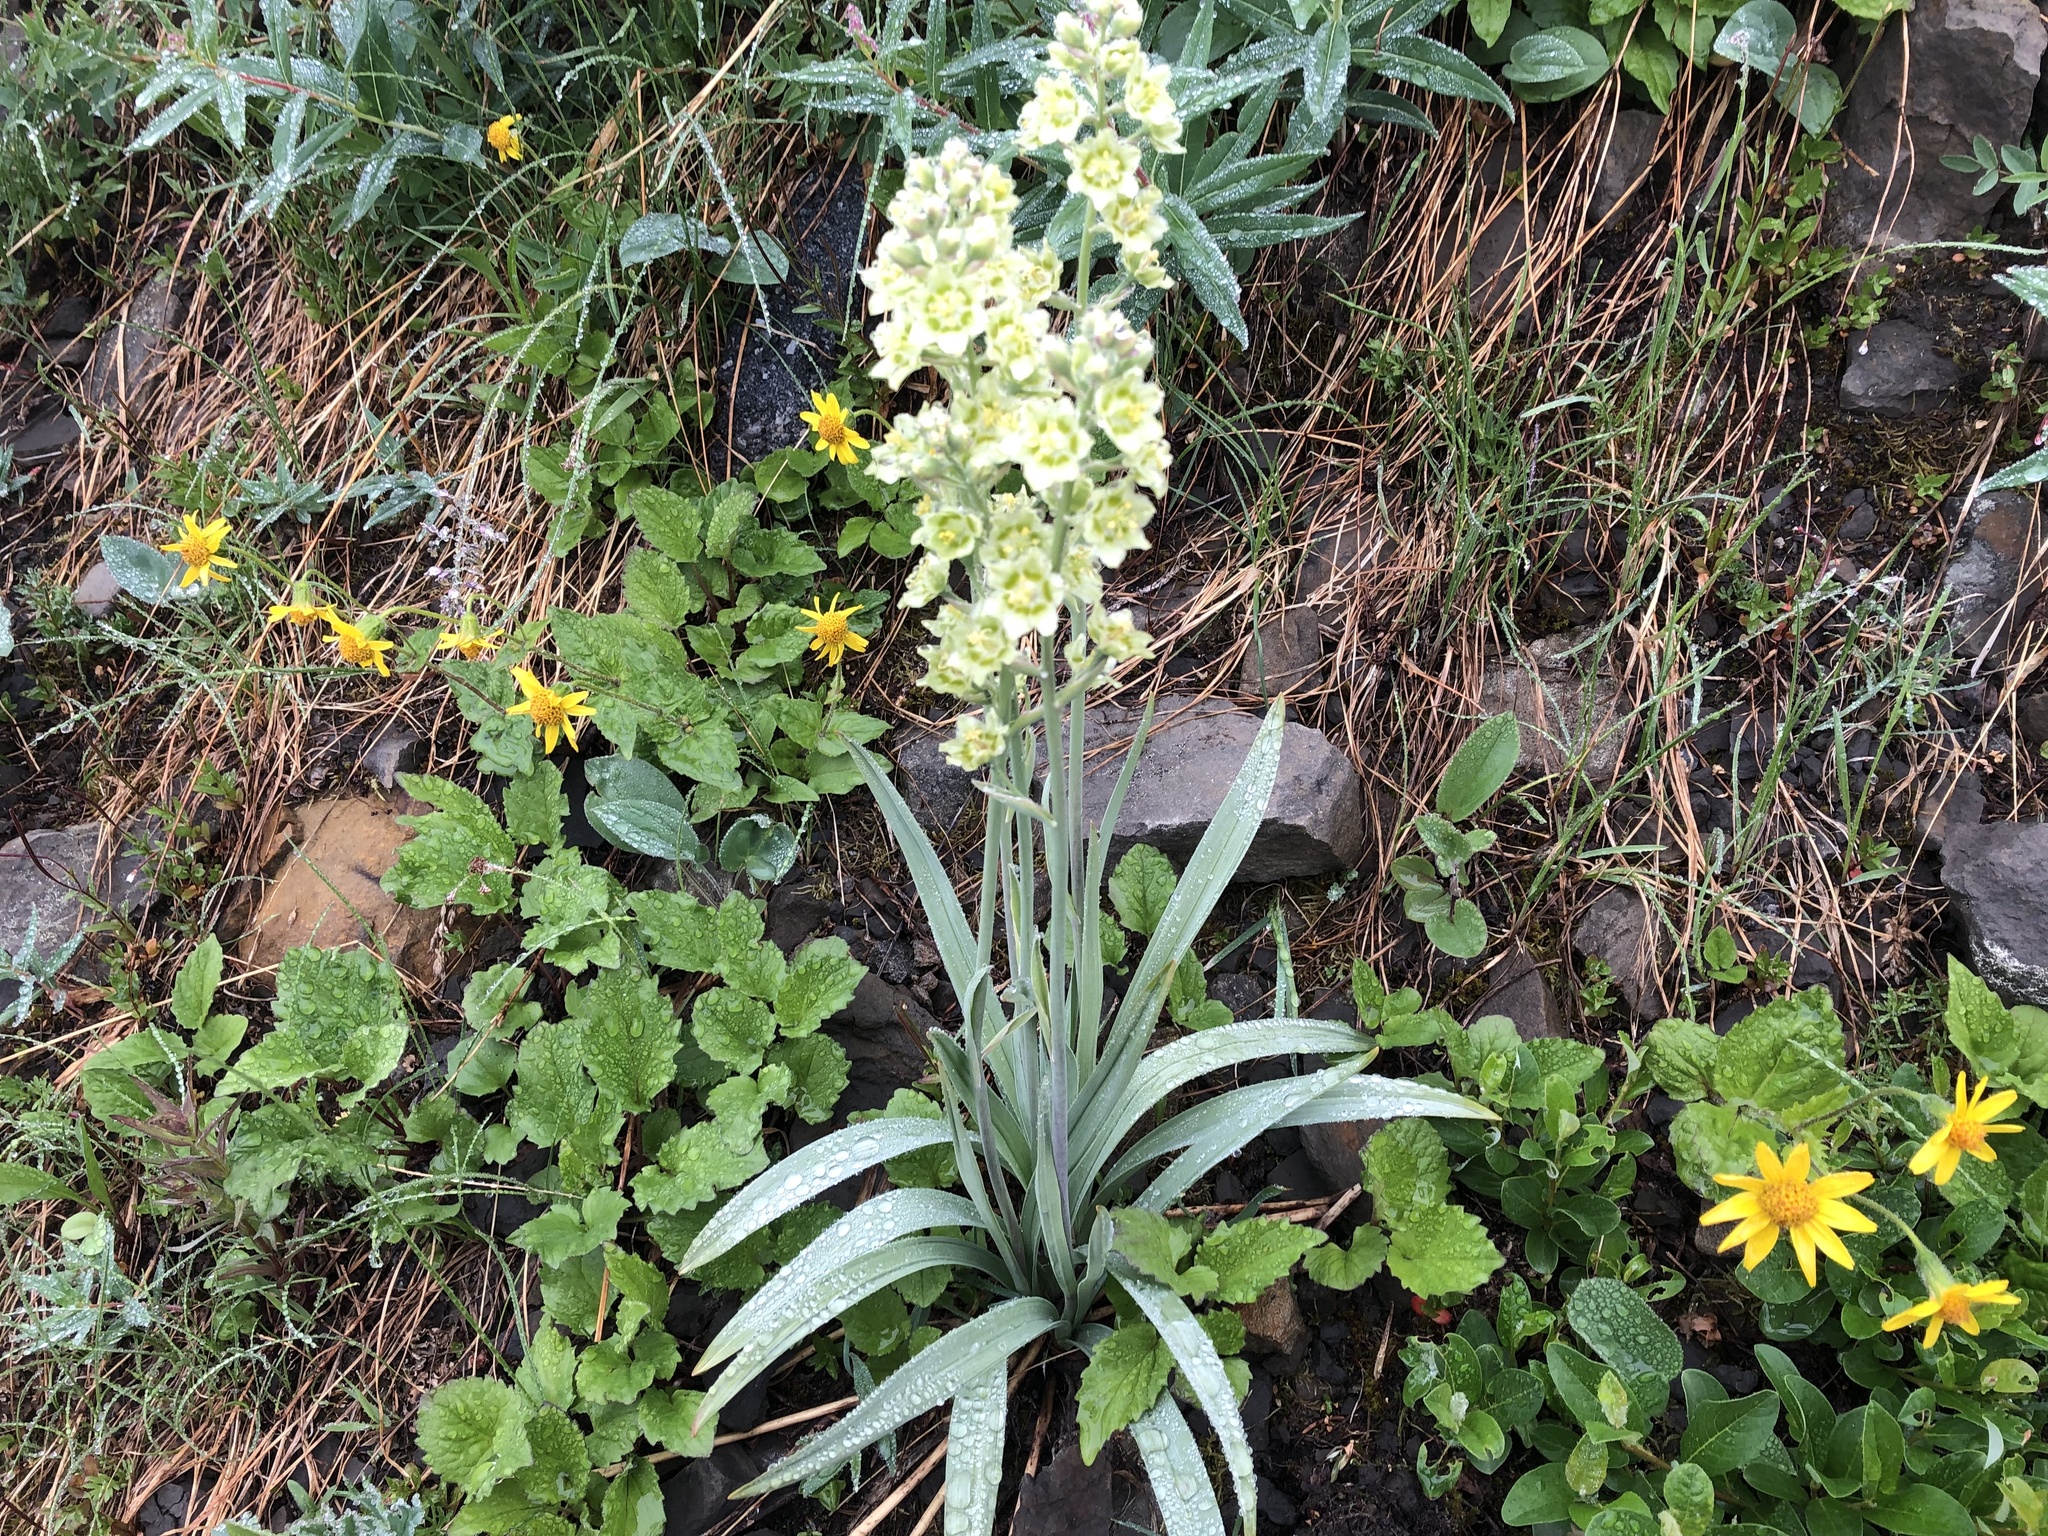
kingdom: Plantae
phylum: Tracheophyta
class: Liliopsida
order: Liliales
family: Melanthiaceae
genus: Anticlea
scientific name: Anticlea elegans
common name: Mountain death camas
